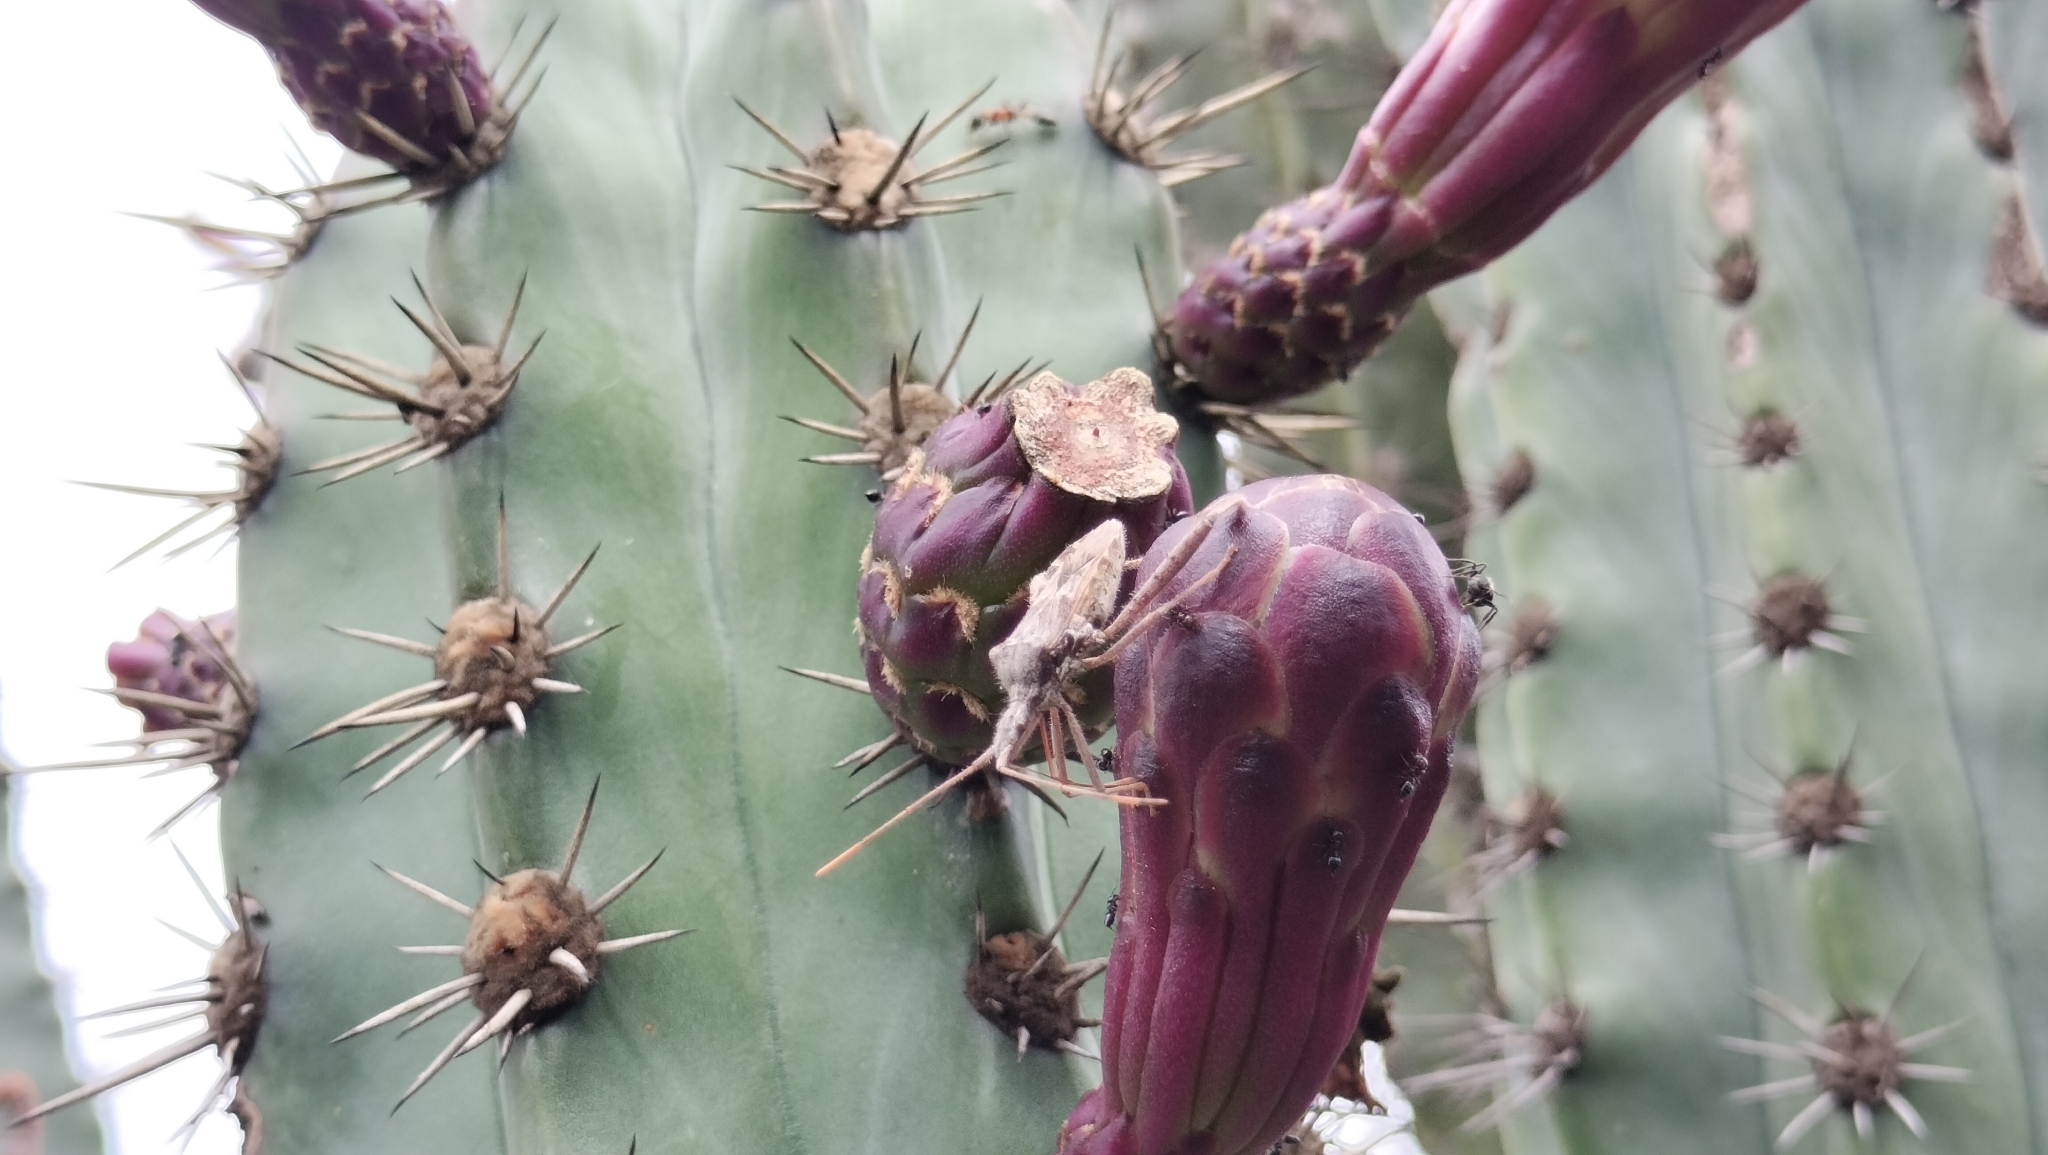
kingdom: Plantae
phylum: Tracheophyta
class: Magnoliopsida
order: Caryophyllales
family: Cactaceae
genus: Stenocereus
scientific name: Stenocereus huastecorum
